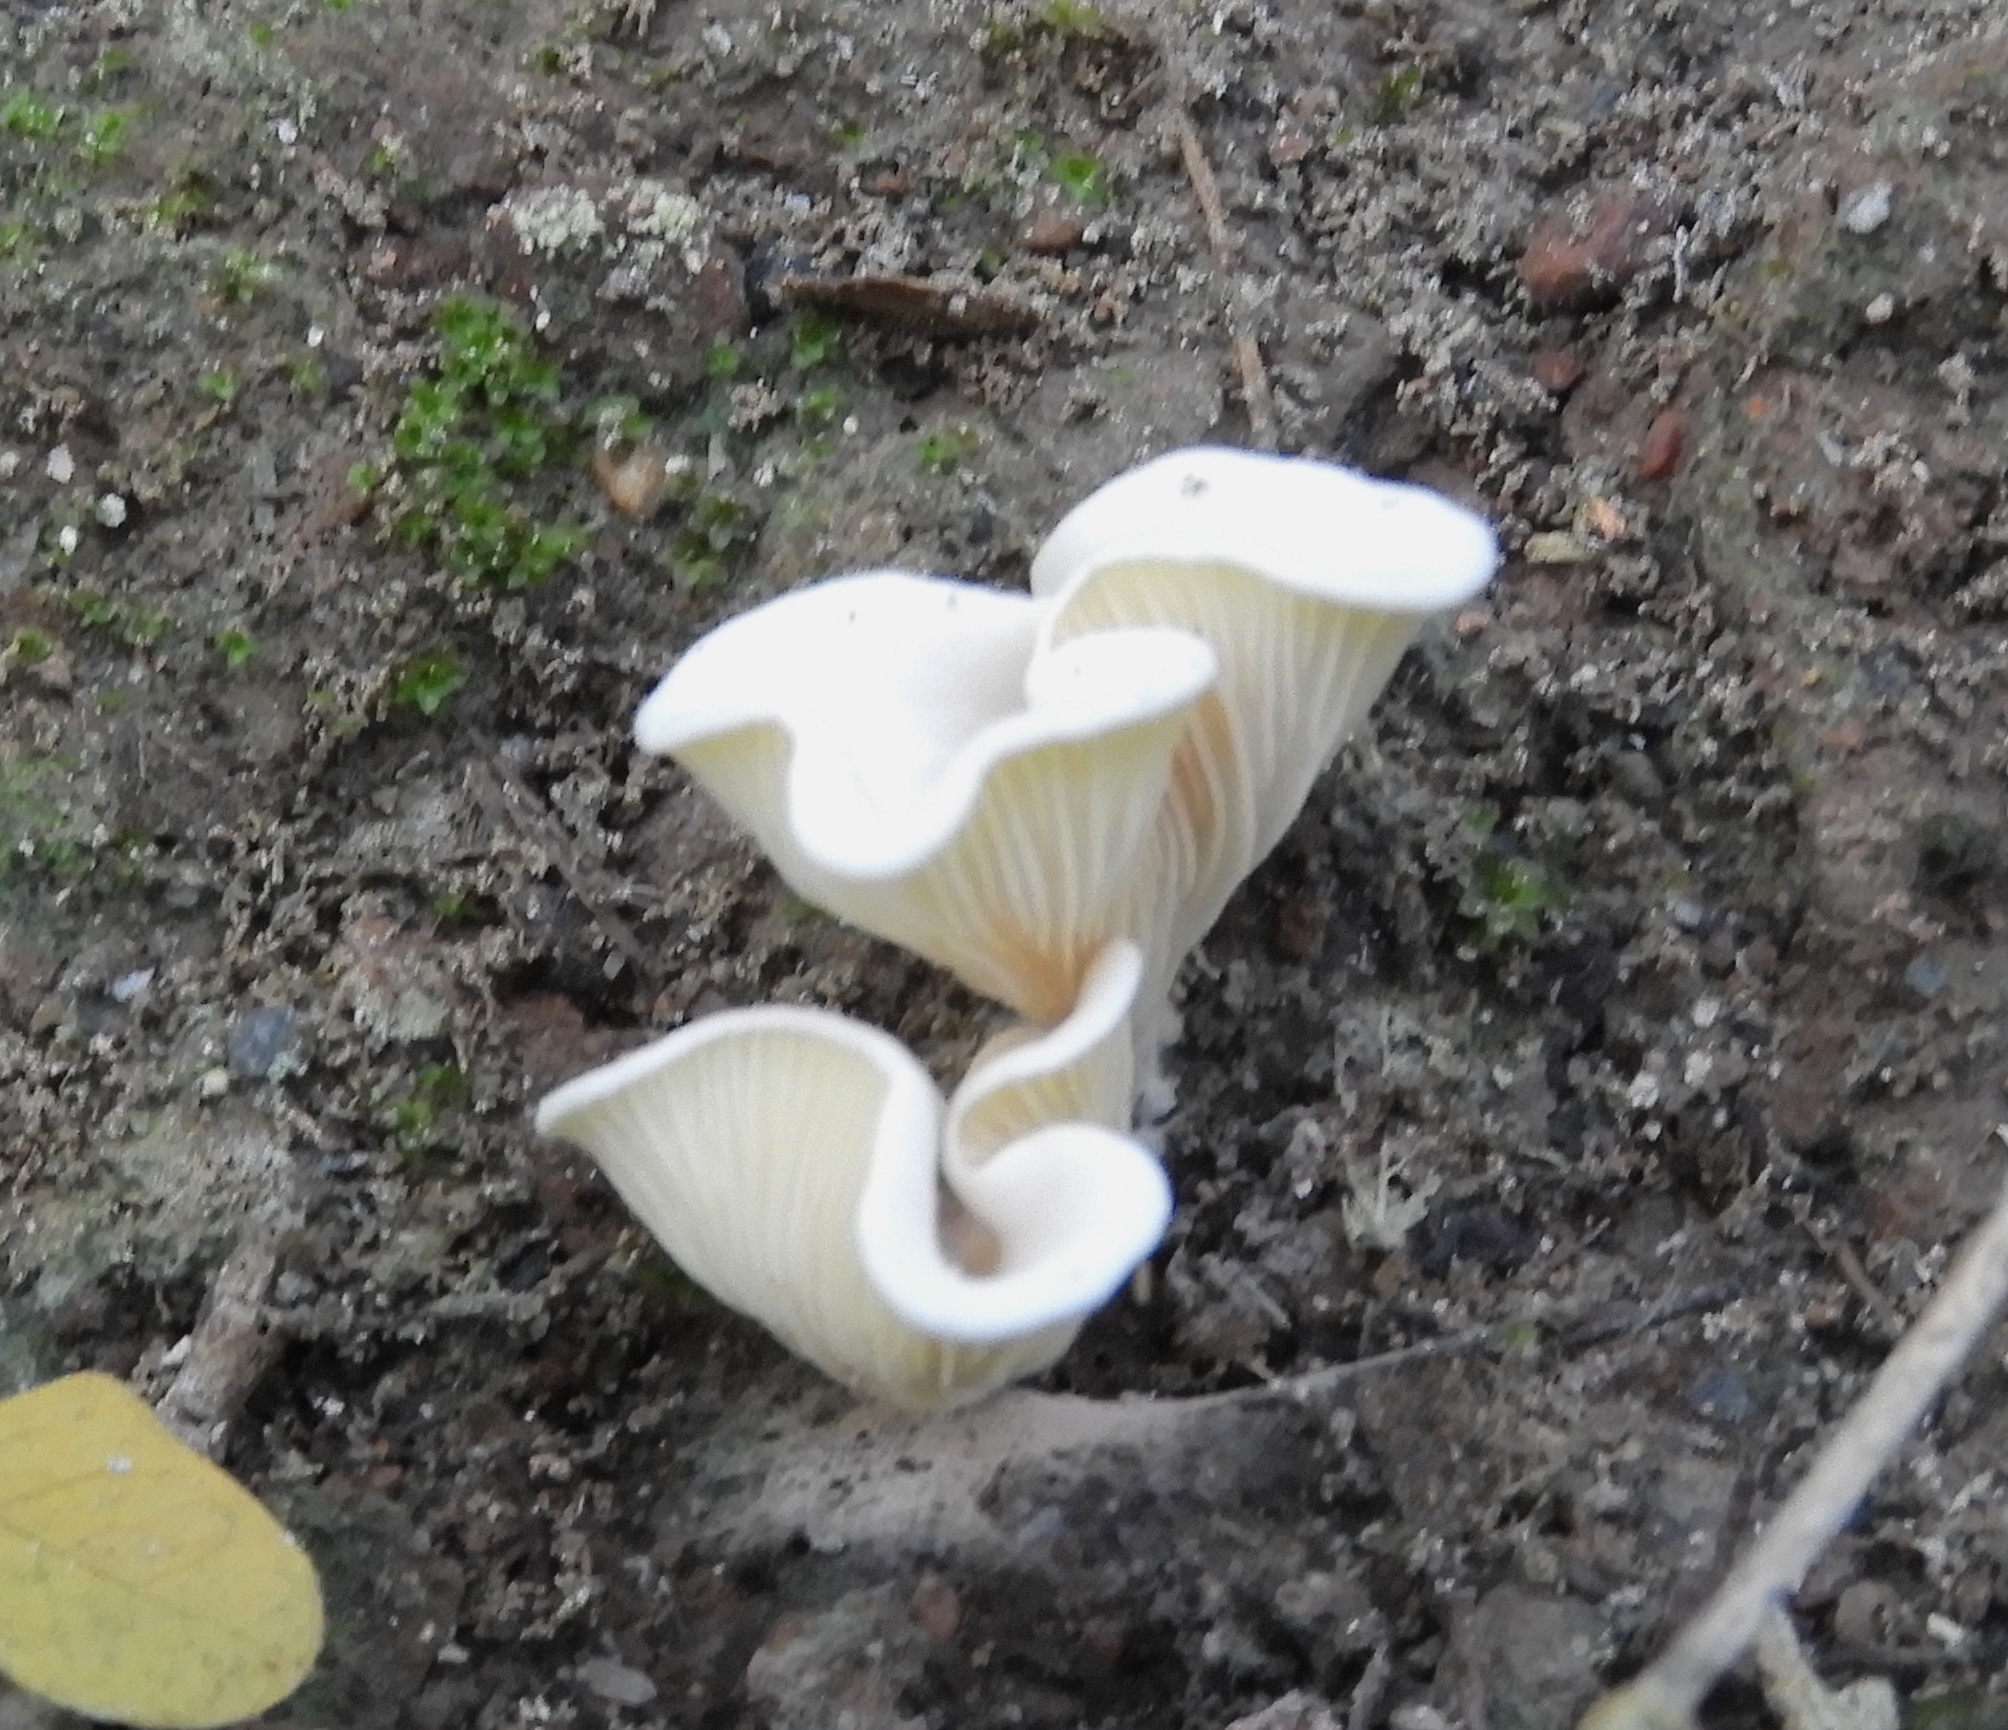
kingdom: Fungi
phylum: Basidiomycota
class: Agaricomycetes
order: Agaricales
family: Marasmiaceae
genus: Pleurocybella
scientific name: Pleurocybella
